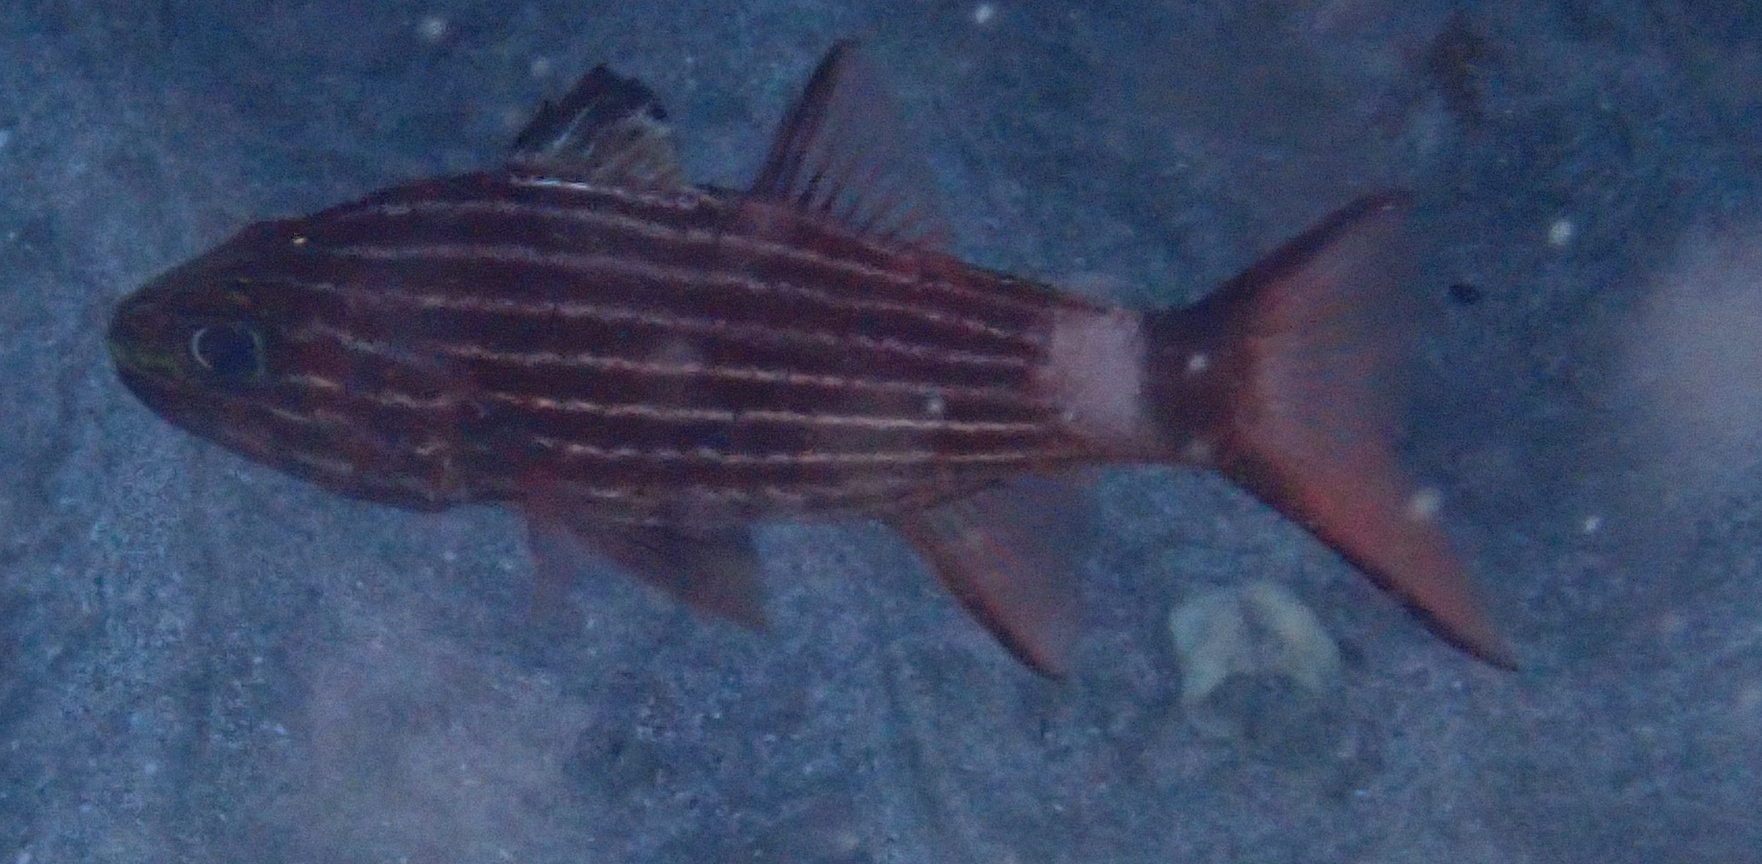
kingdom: Animalia
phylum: Chordata
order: Perciformes
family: Apogonidae
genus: Cheilodipterus
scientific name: Cheilodipterus macrodon
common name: Eight-lined cardinalfish
